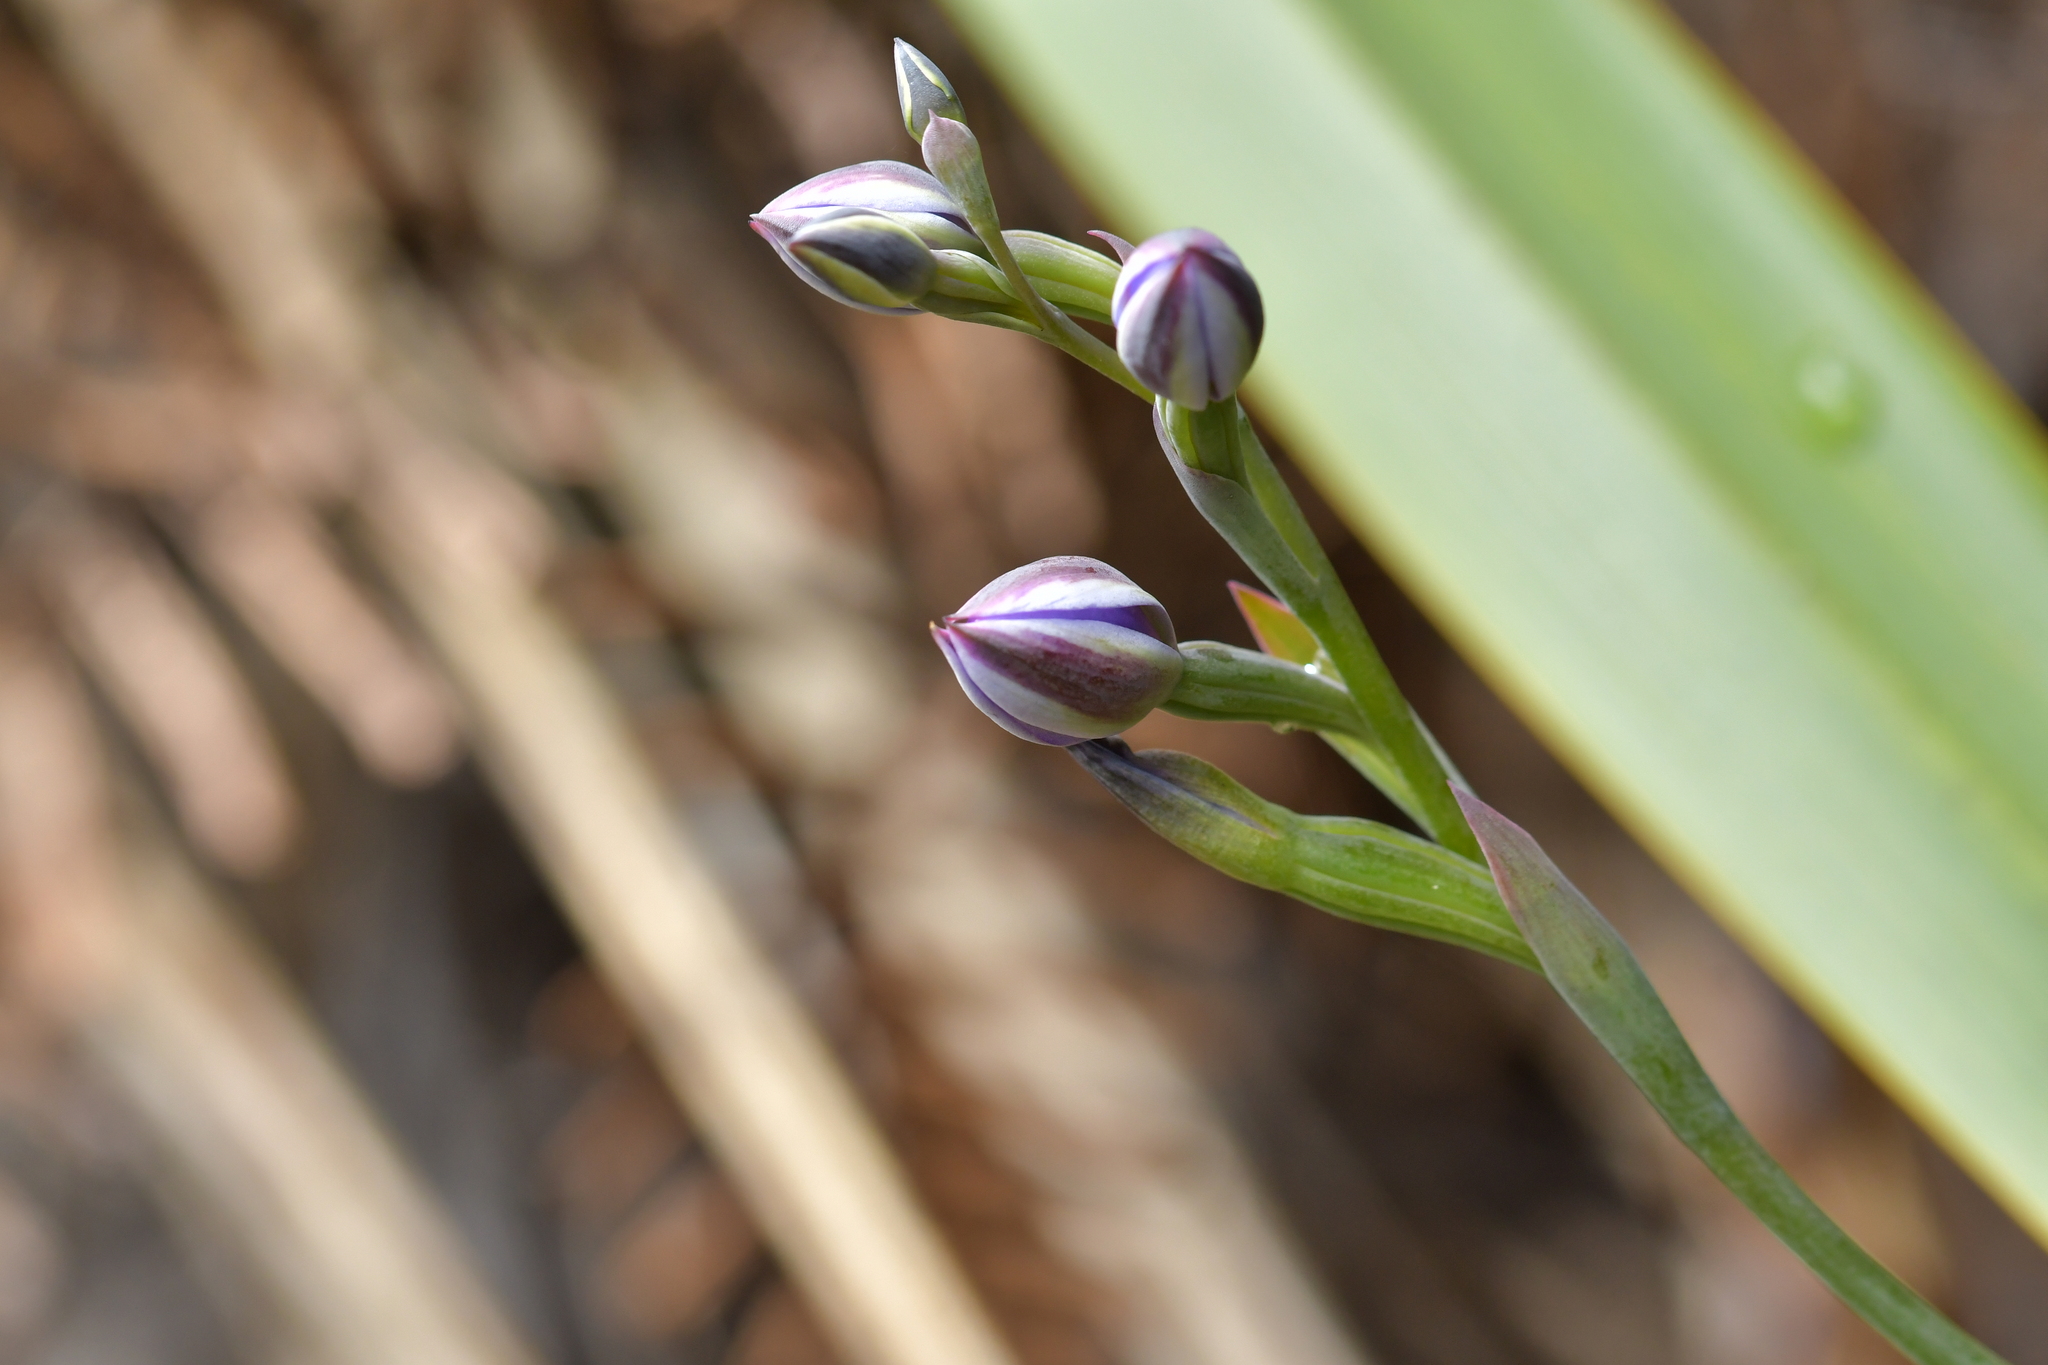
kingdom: Plantae
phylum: Tracheophyta
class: Liliopsida
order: Asparagales
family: Orchidaceae
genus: Thelymitra
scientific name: Thelymitra nervosa
